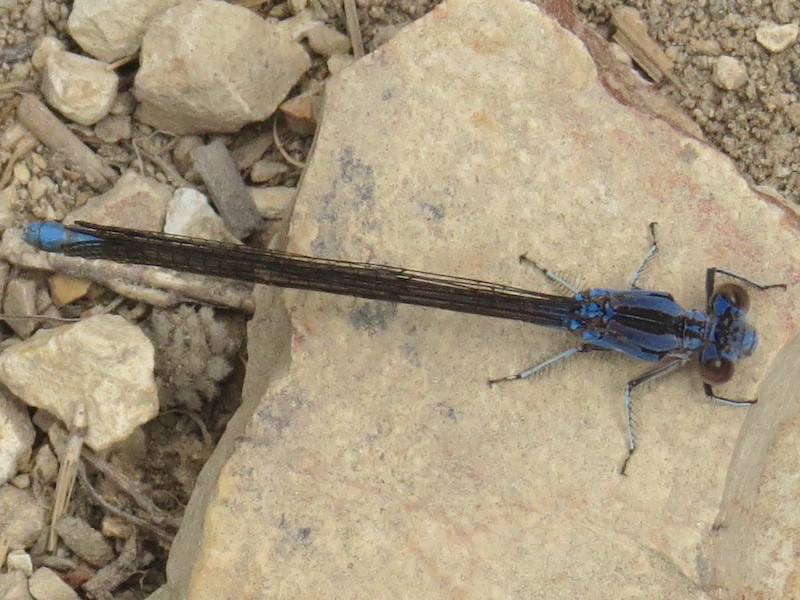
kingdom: Animalia
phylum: Arthropoda
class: Insecta
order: Odonata
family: Coenagrionidae
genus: Argia
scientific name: Argia vivida
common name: Vivid dancer
